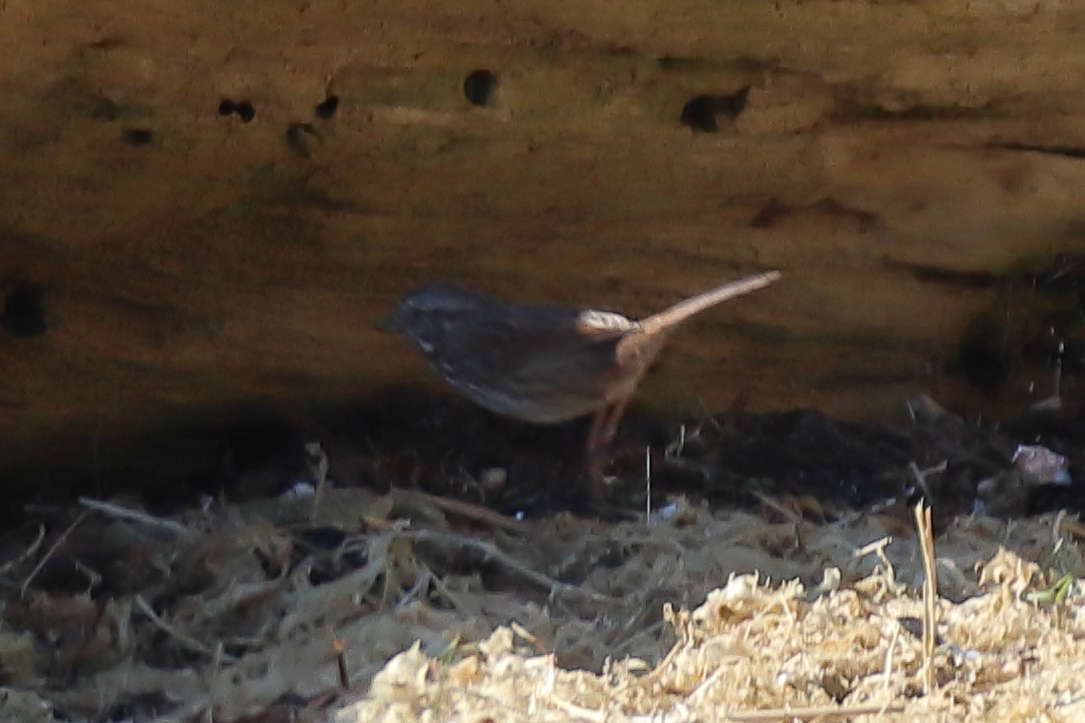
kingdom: Animalia
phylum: Chordata
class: Aves
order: Passeriformes
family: Passerellidae
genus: Melospiza
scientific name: Melospiza melodia
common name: Song sparrow
